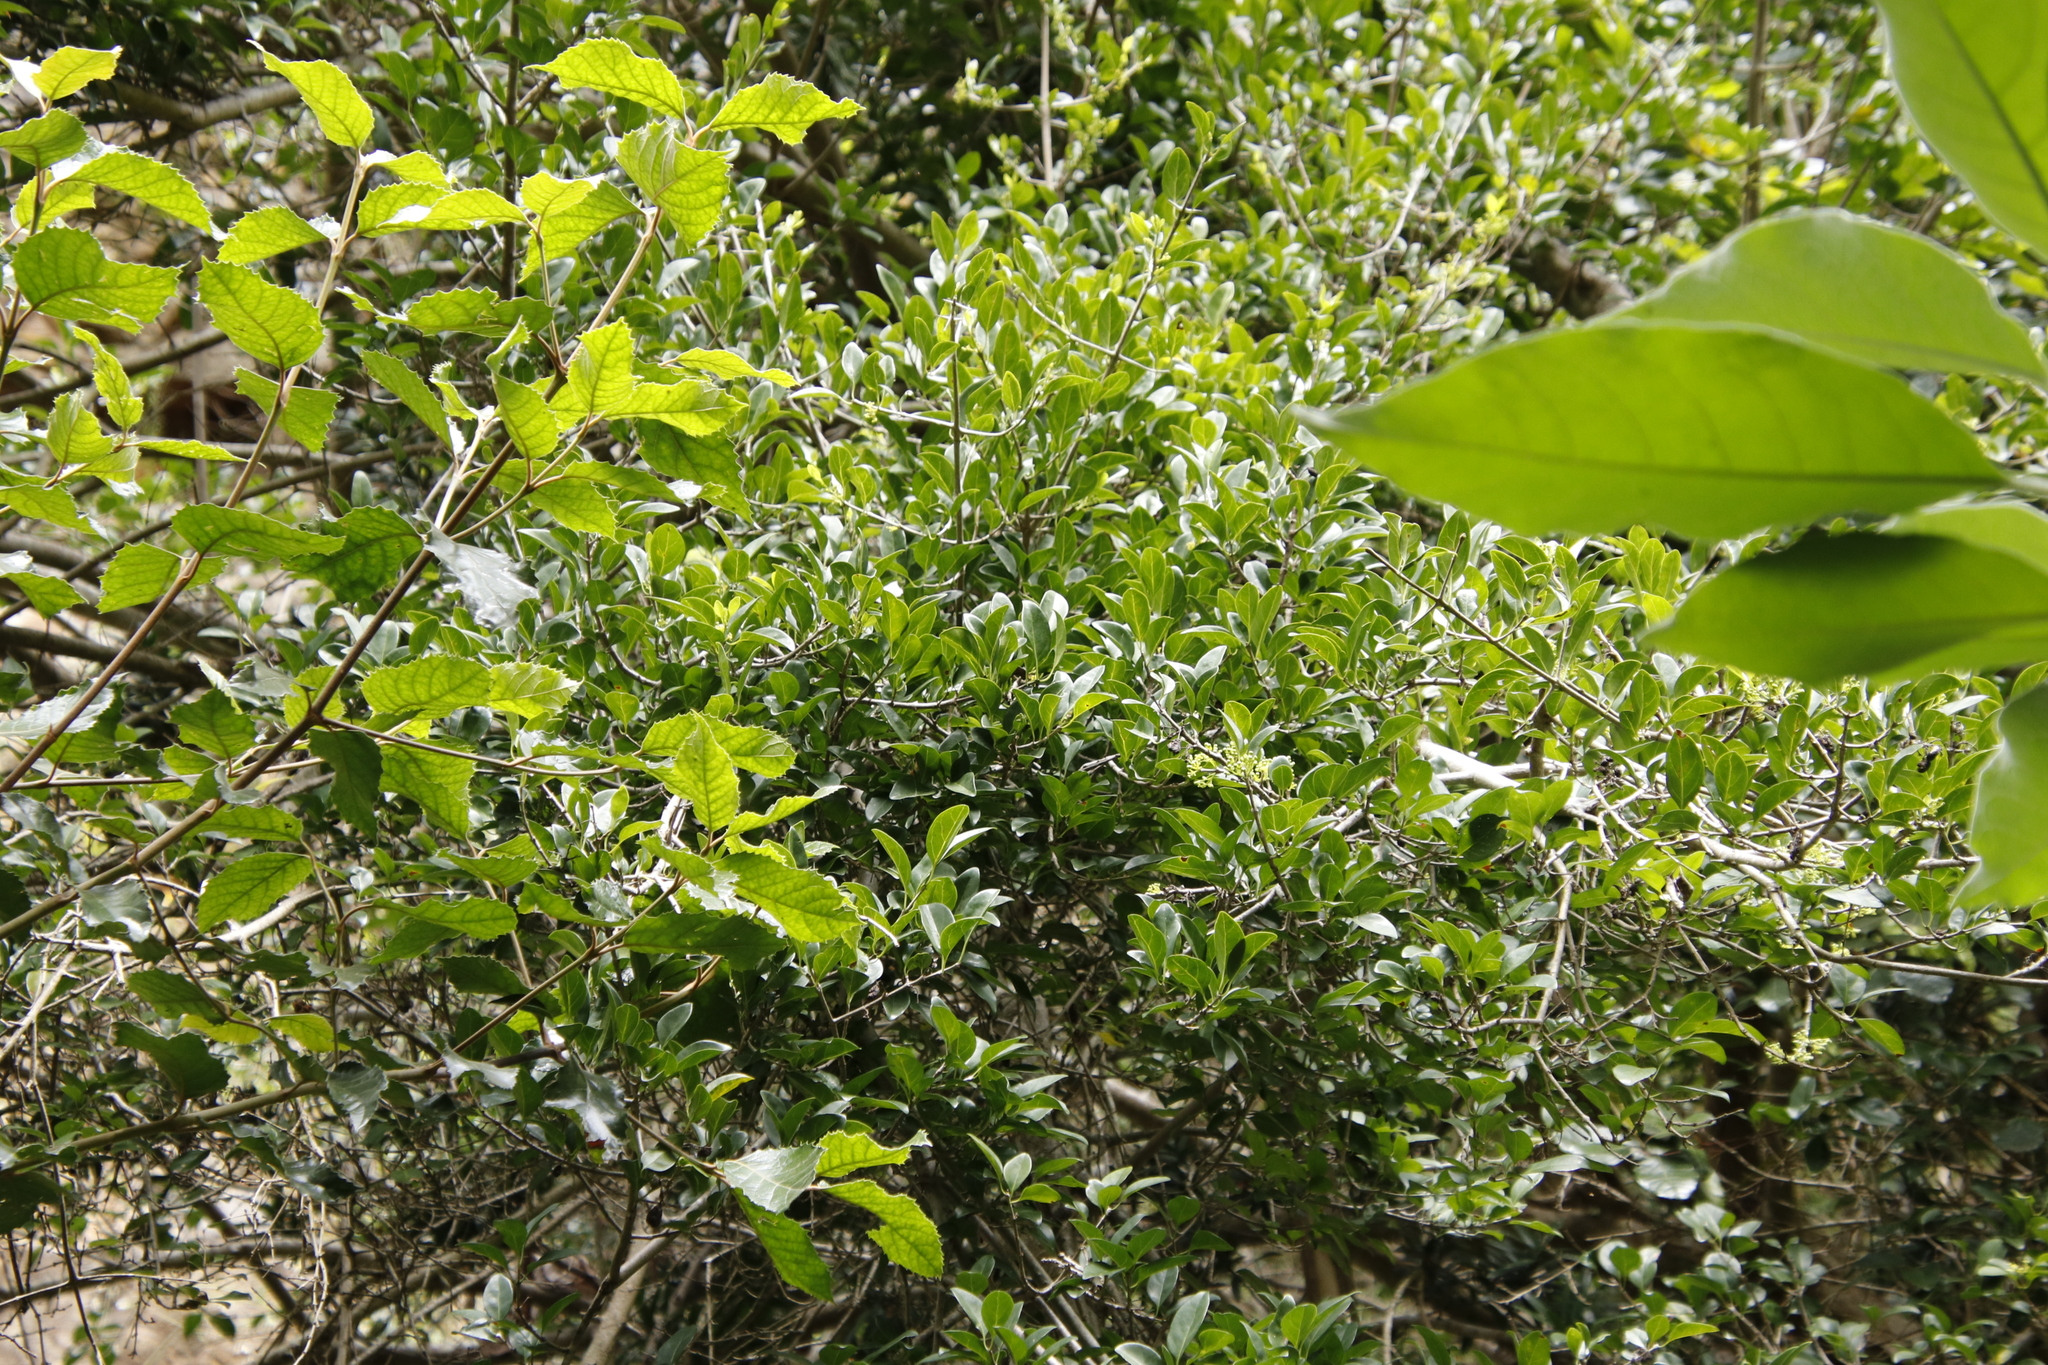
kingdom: Plantae
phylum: Tracheophyta
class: Magnoliopsida
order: Gentianales
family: Rubiaceae
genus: Afrocanthium
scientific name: Afrocanthium mundianum
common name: Rock-alder
